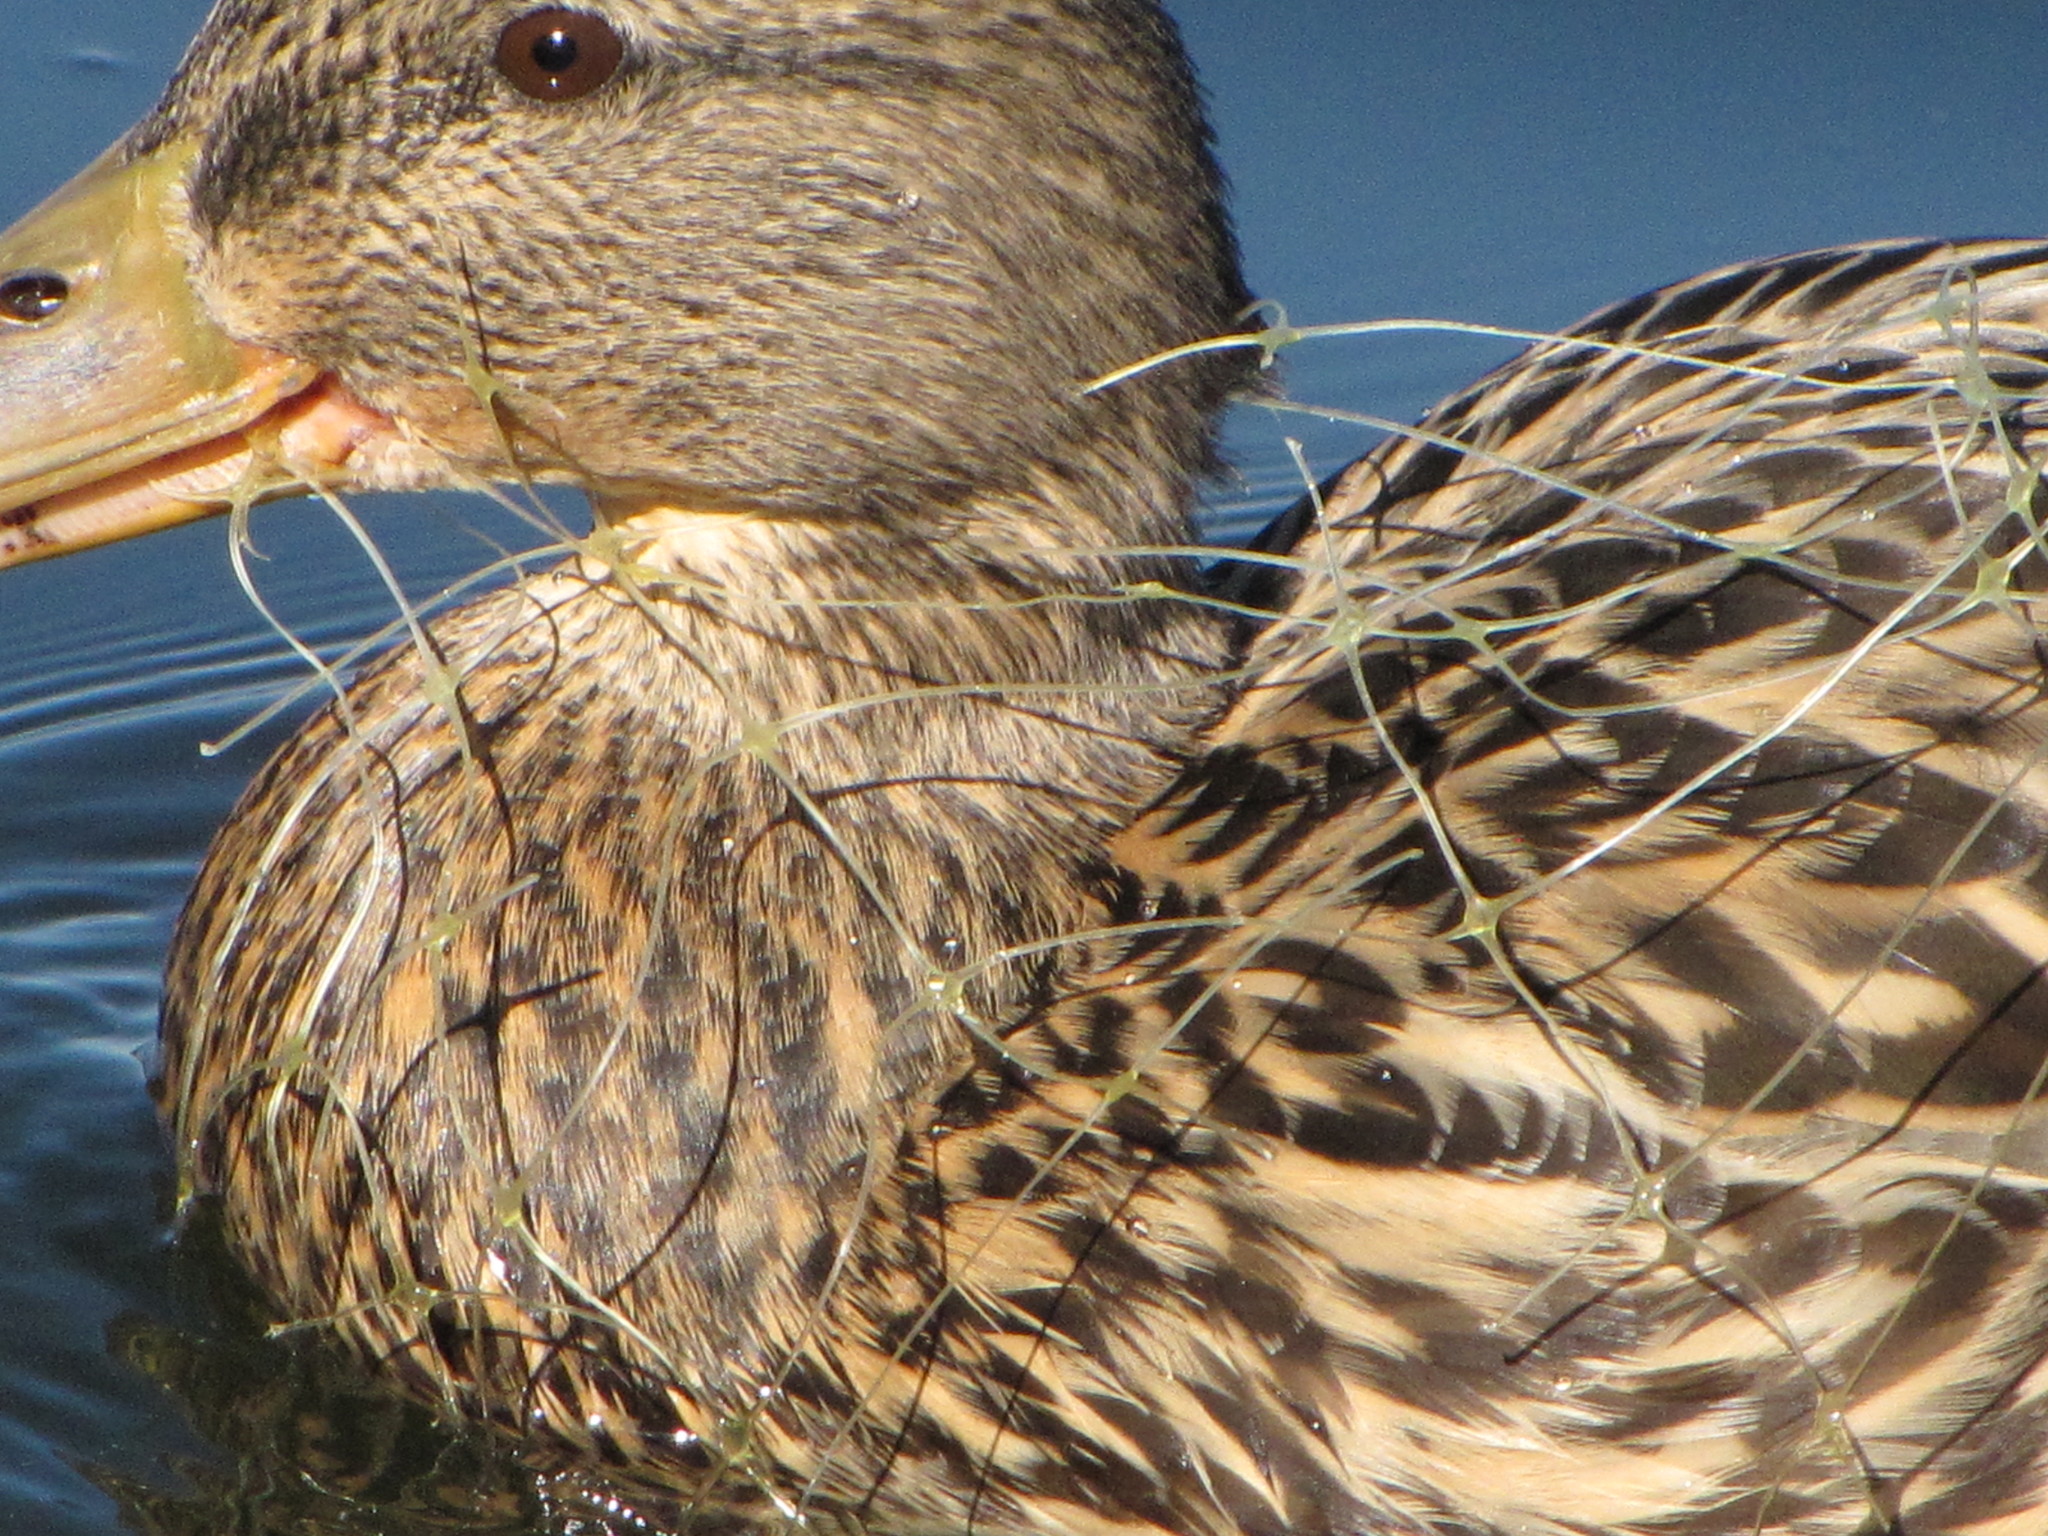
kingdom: Animalia
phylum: Chordata
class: Aves
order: Anseriformes
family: Anatidae
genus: Anas
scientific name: Anas platyrhynchos
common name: Mallard
